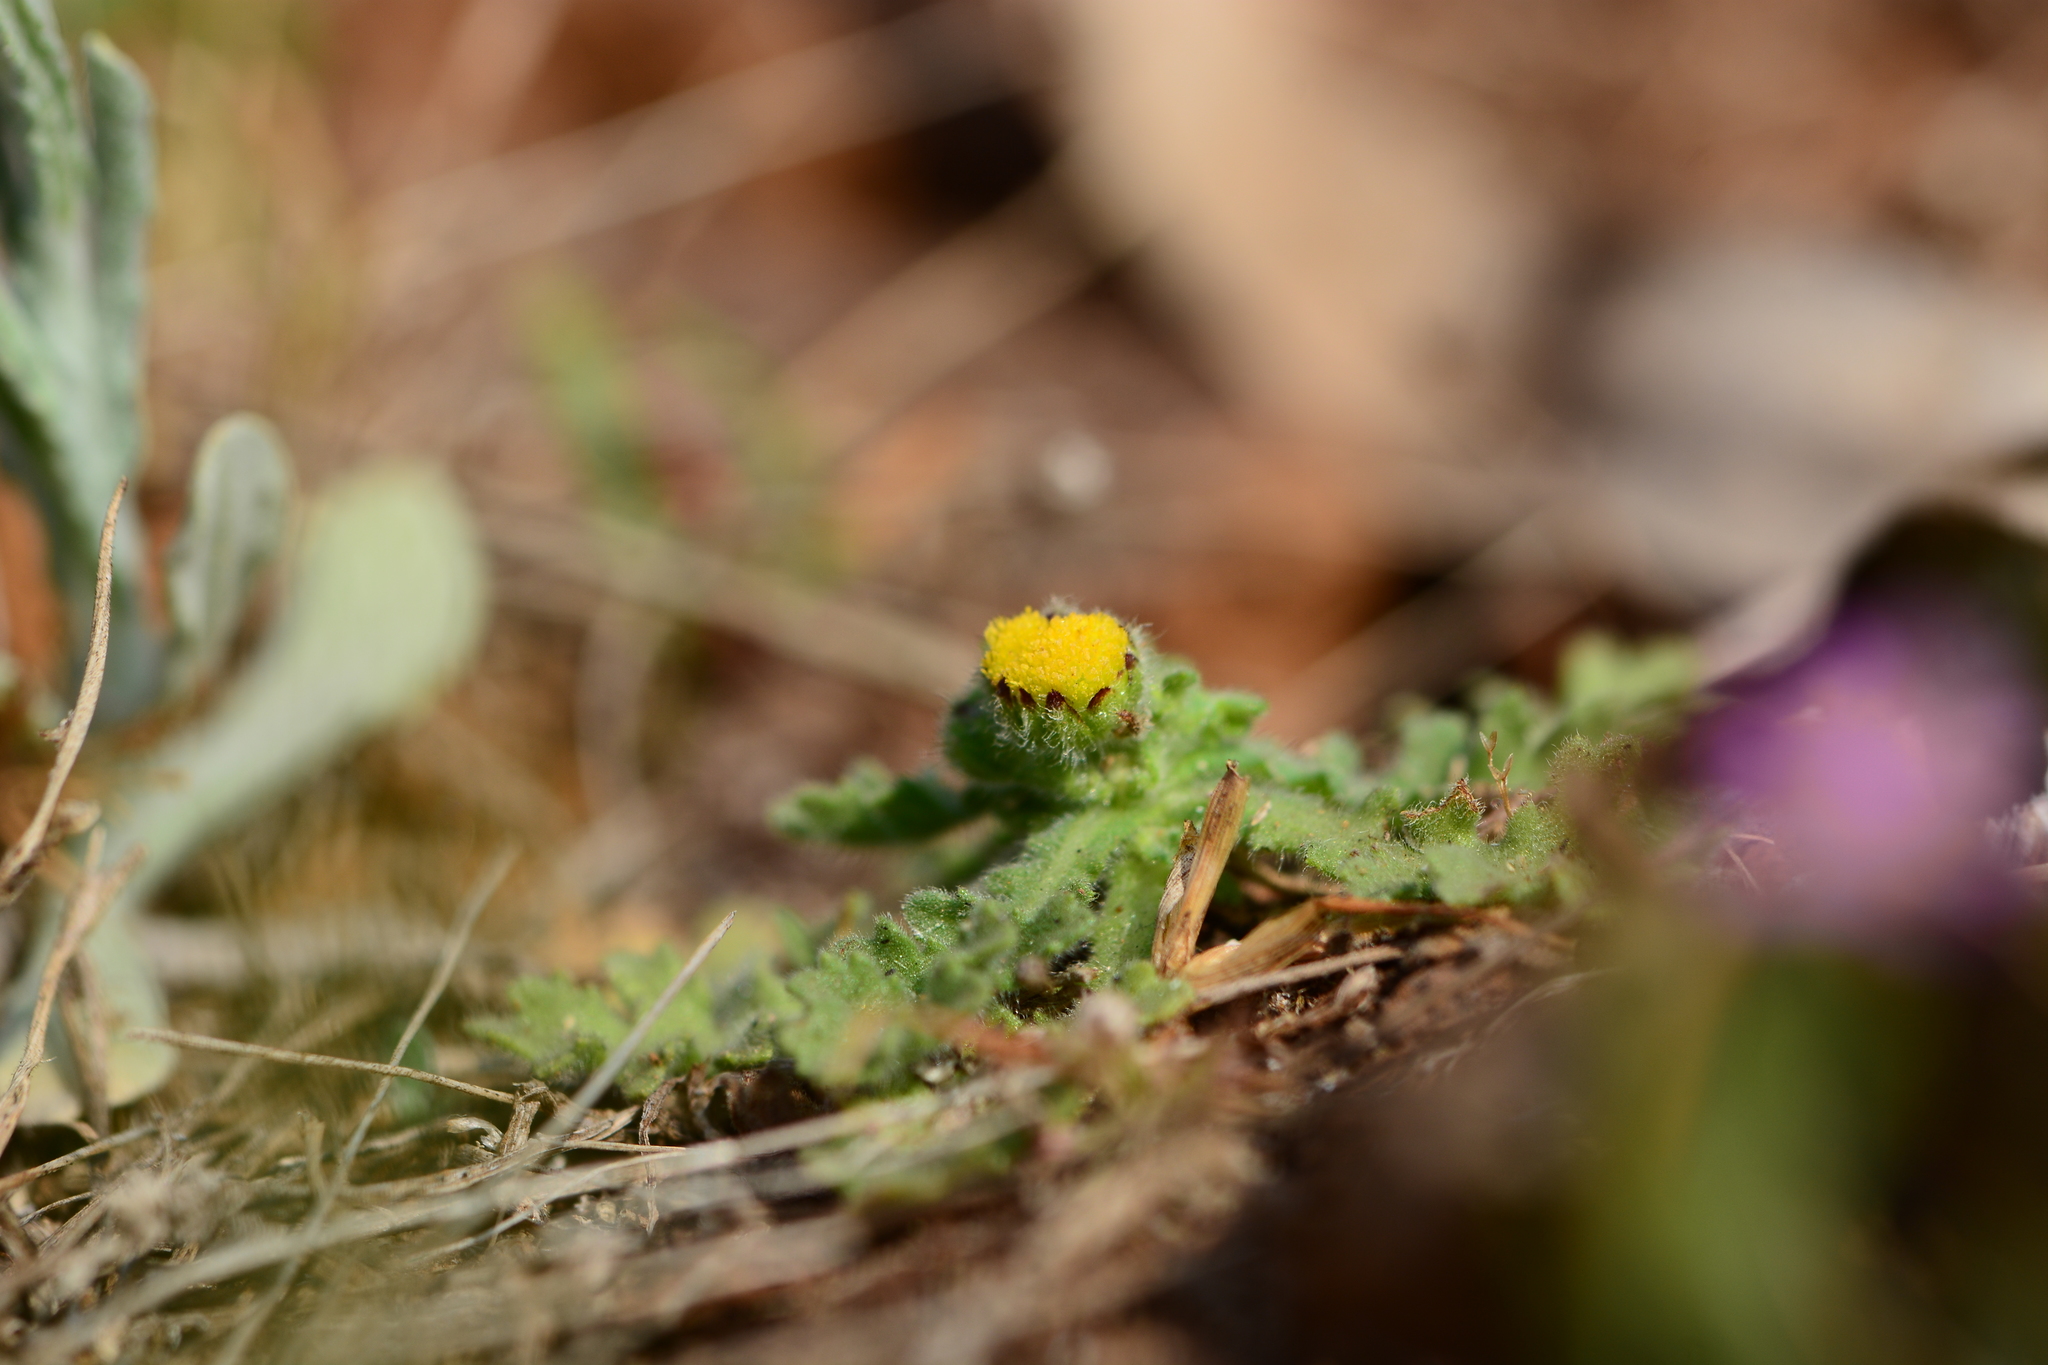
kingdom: Plantae
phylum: Tracheophyta
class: Magnoliopsida
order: Asterales
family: Asteraceae
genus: Grangea
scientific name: Grangea maderaspatana
